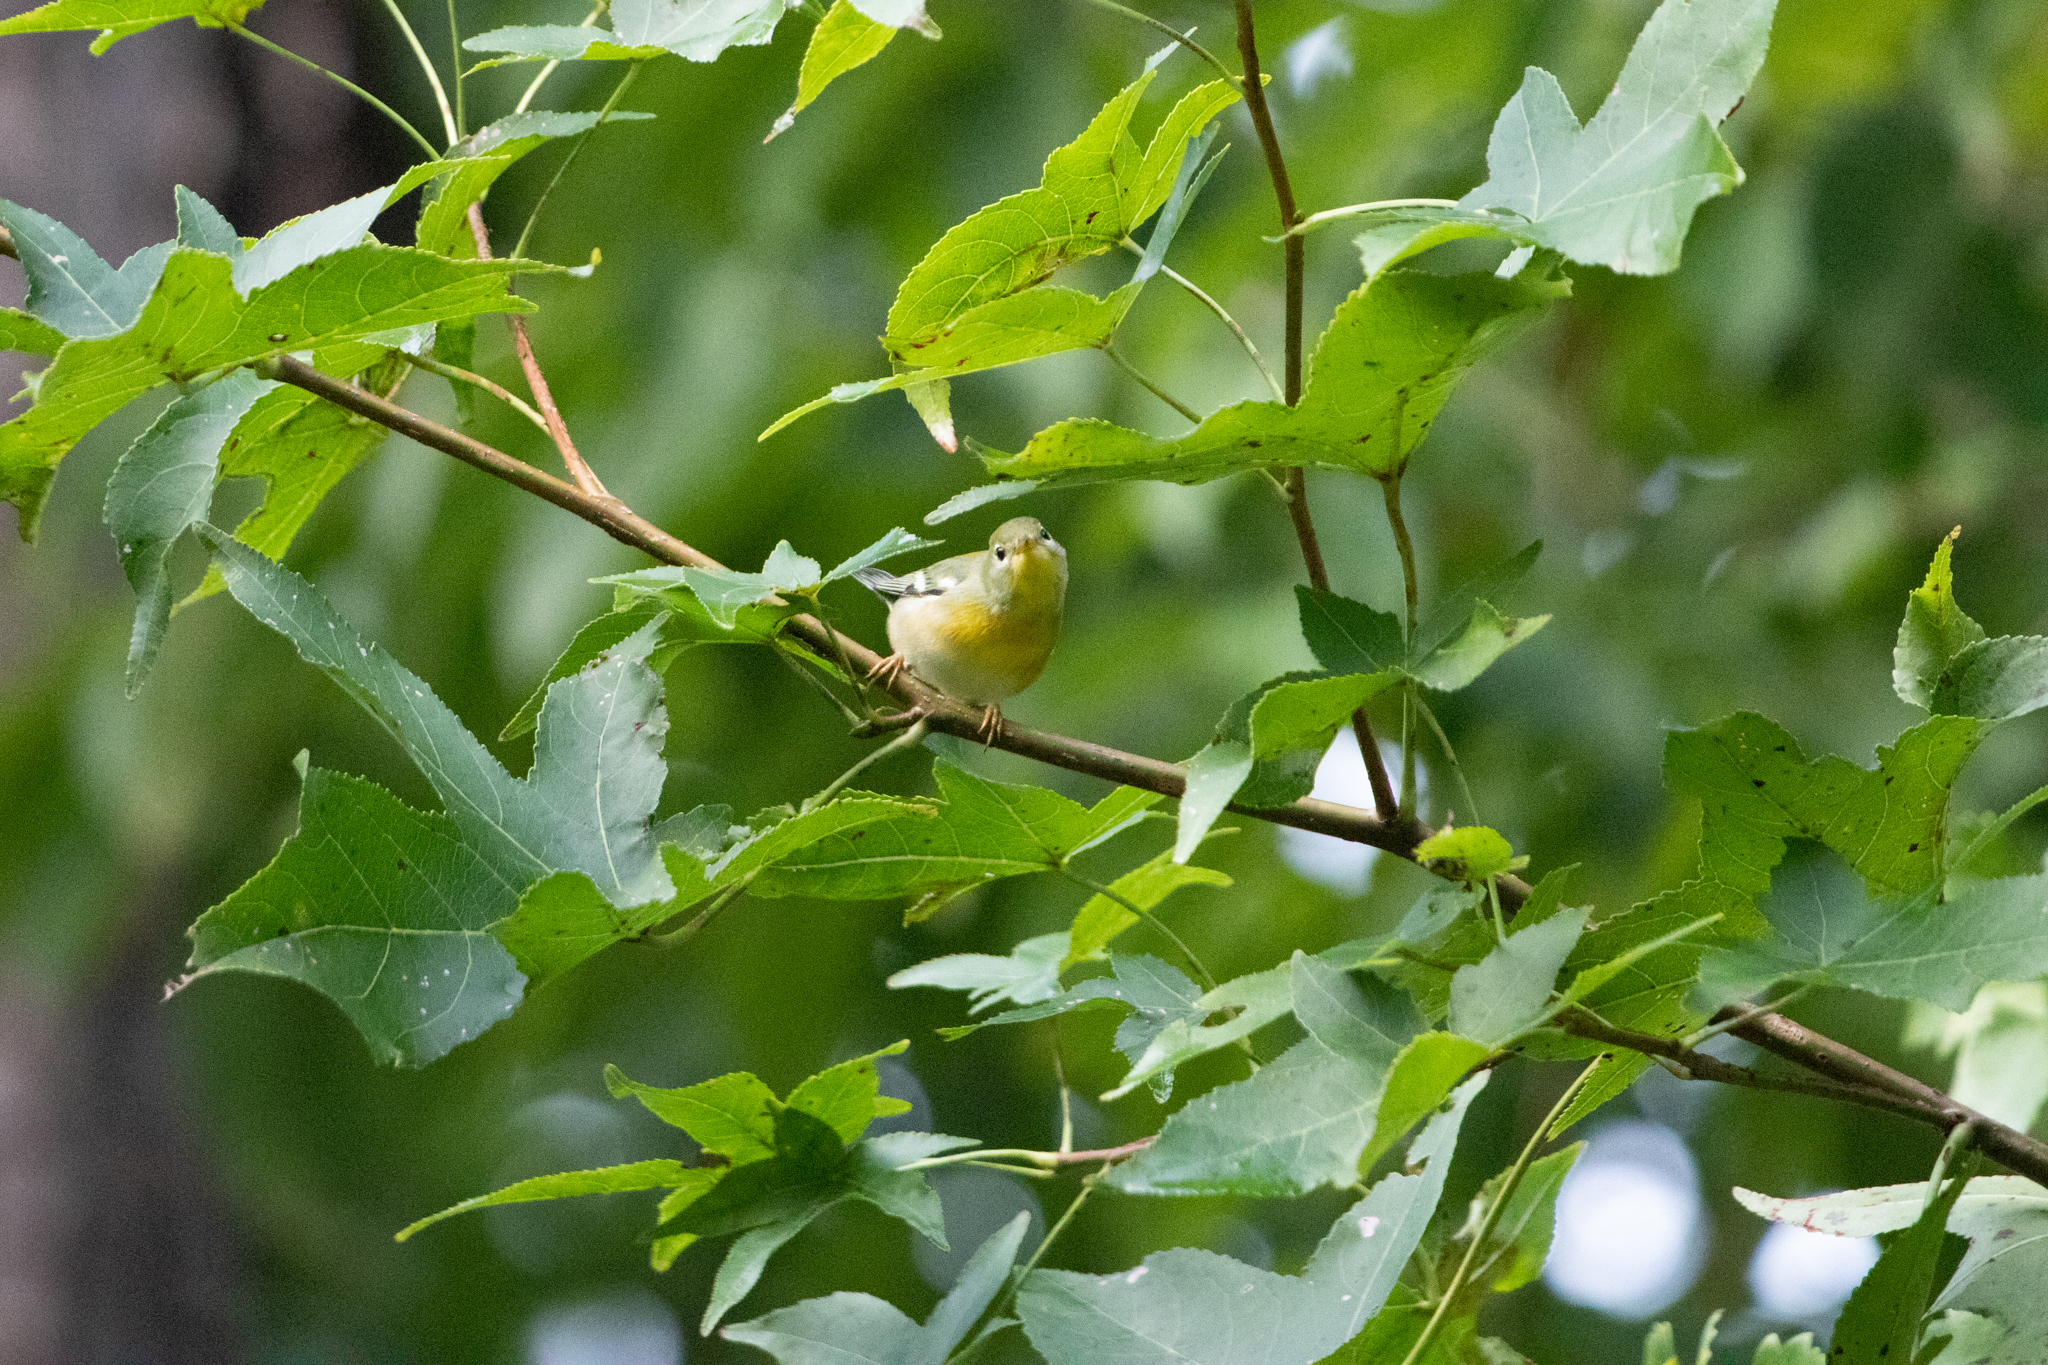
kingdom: Animalia
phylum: Chordata
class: Aves
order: Passeriformes
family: Parulidae
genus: Setophaga
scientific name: Setophaga americana
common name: Northern parula
